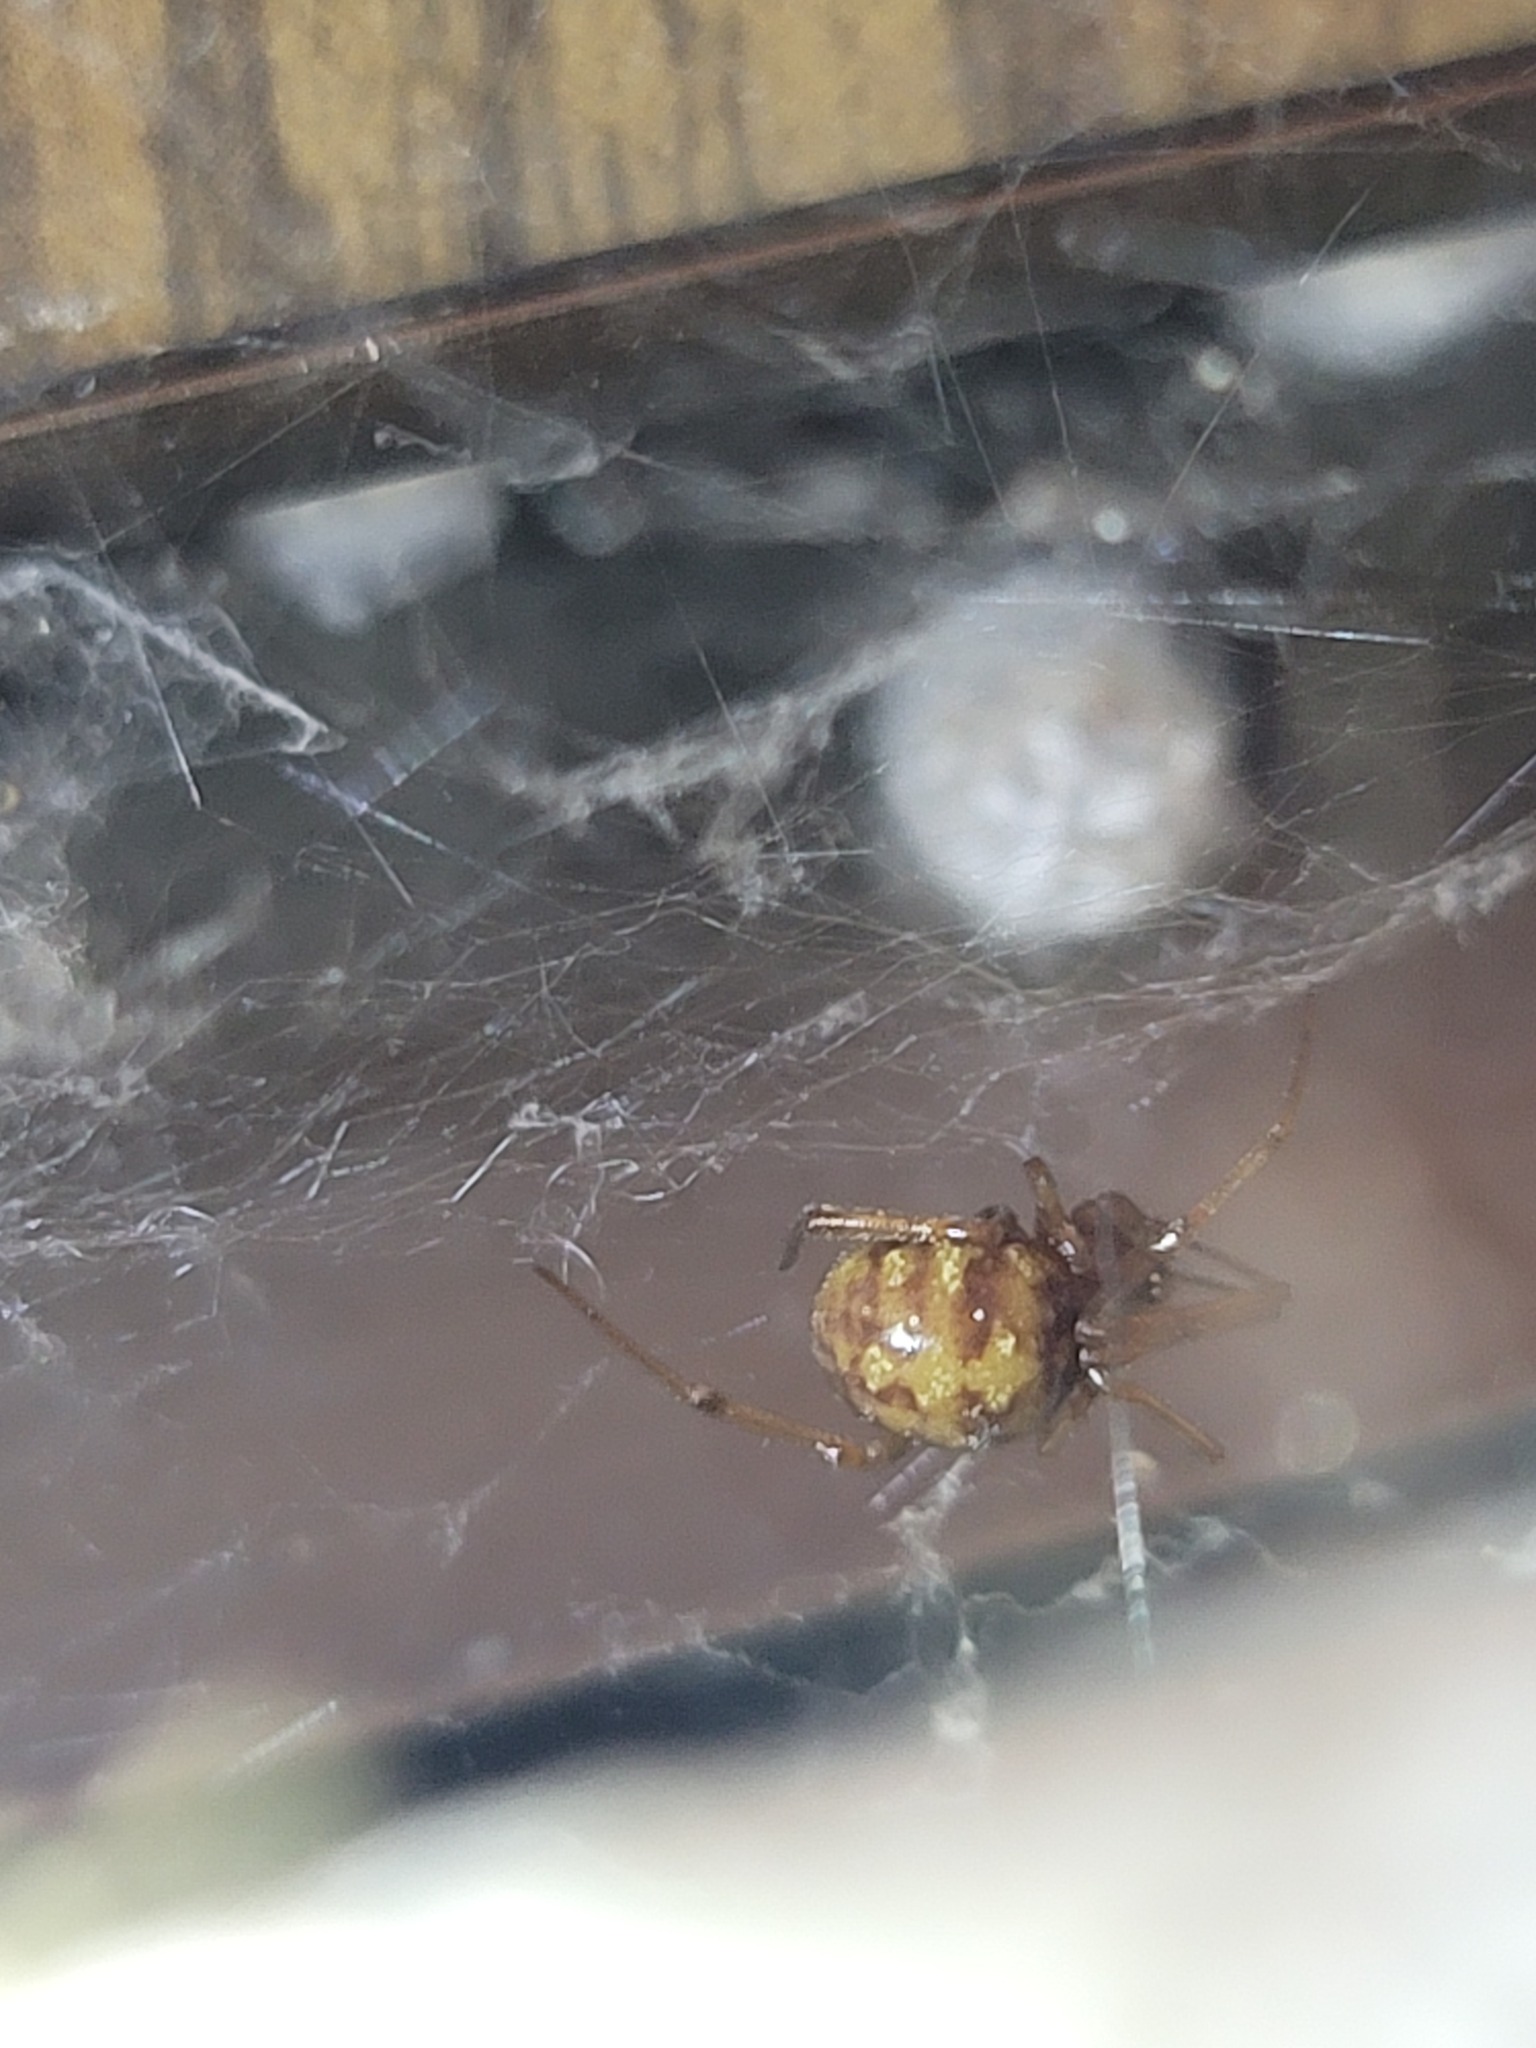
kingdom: Animalia
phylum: Arthropoda
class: Arachnida
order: Araneae
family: Theridiidae
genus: Steatoda
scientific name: Steatoda triangulosa
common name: Triangulate bud spider
